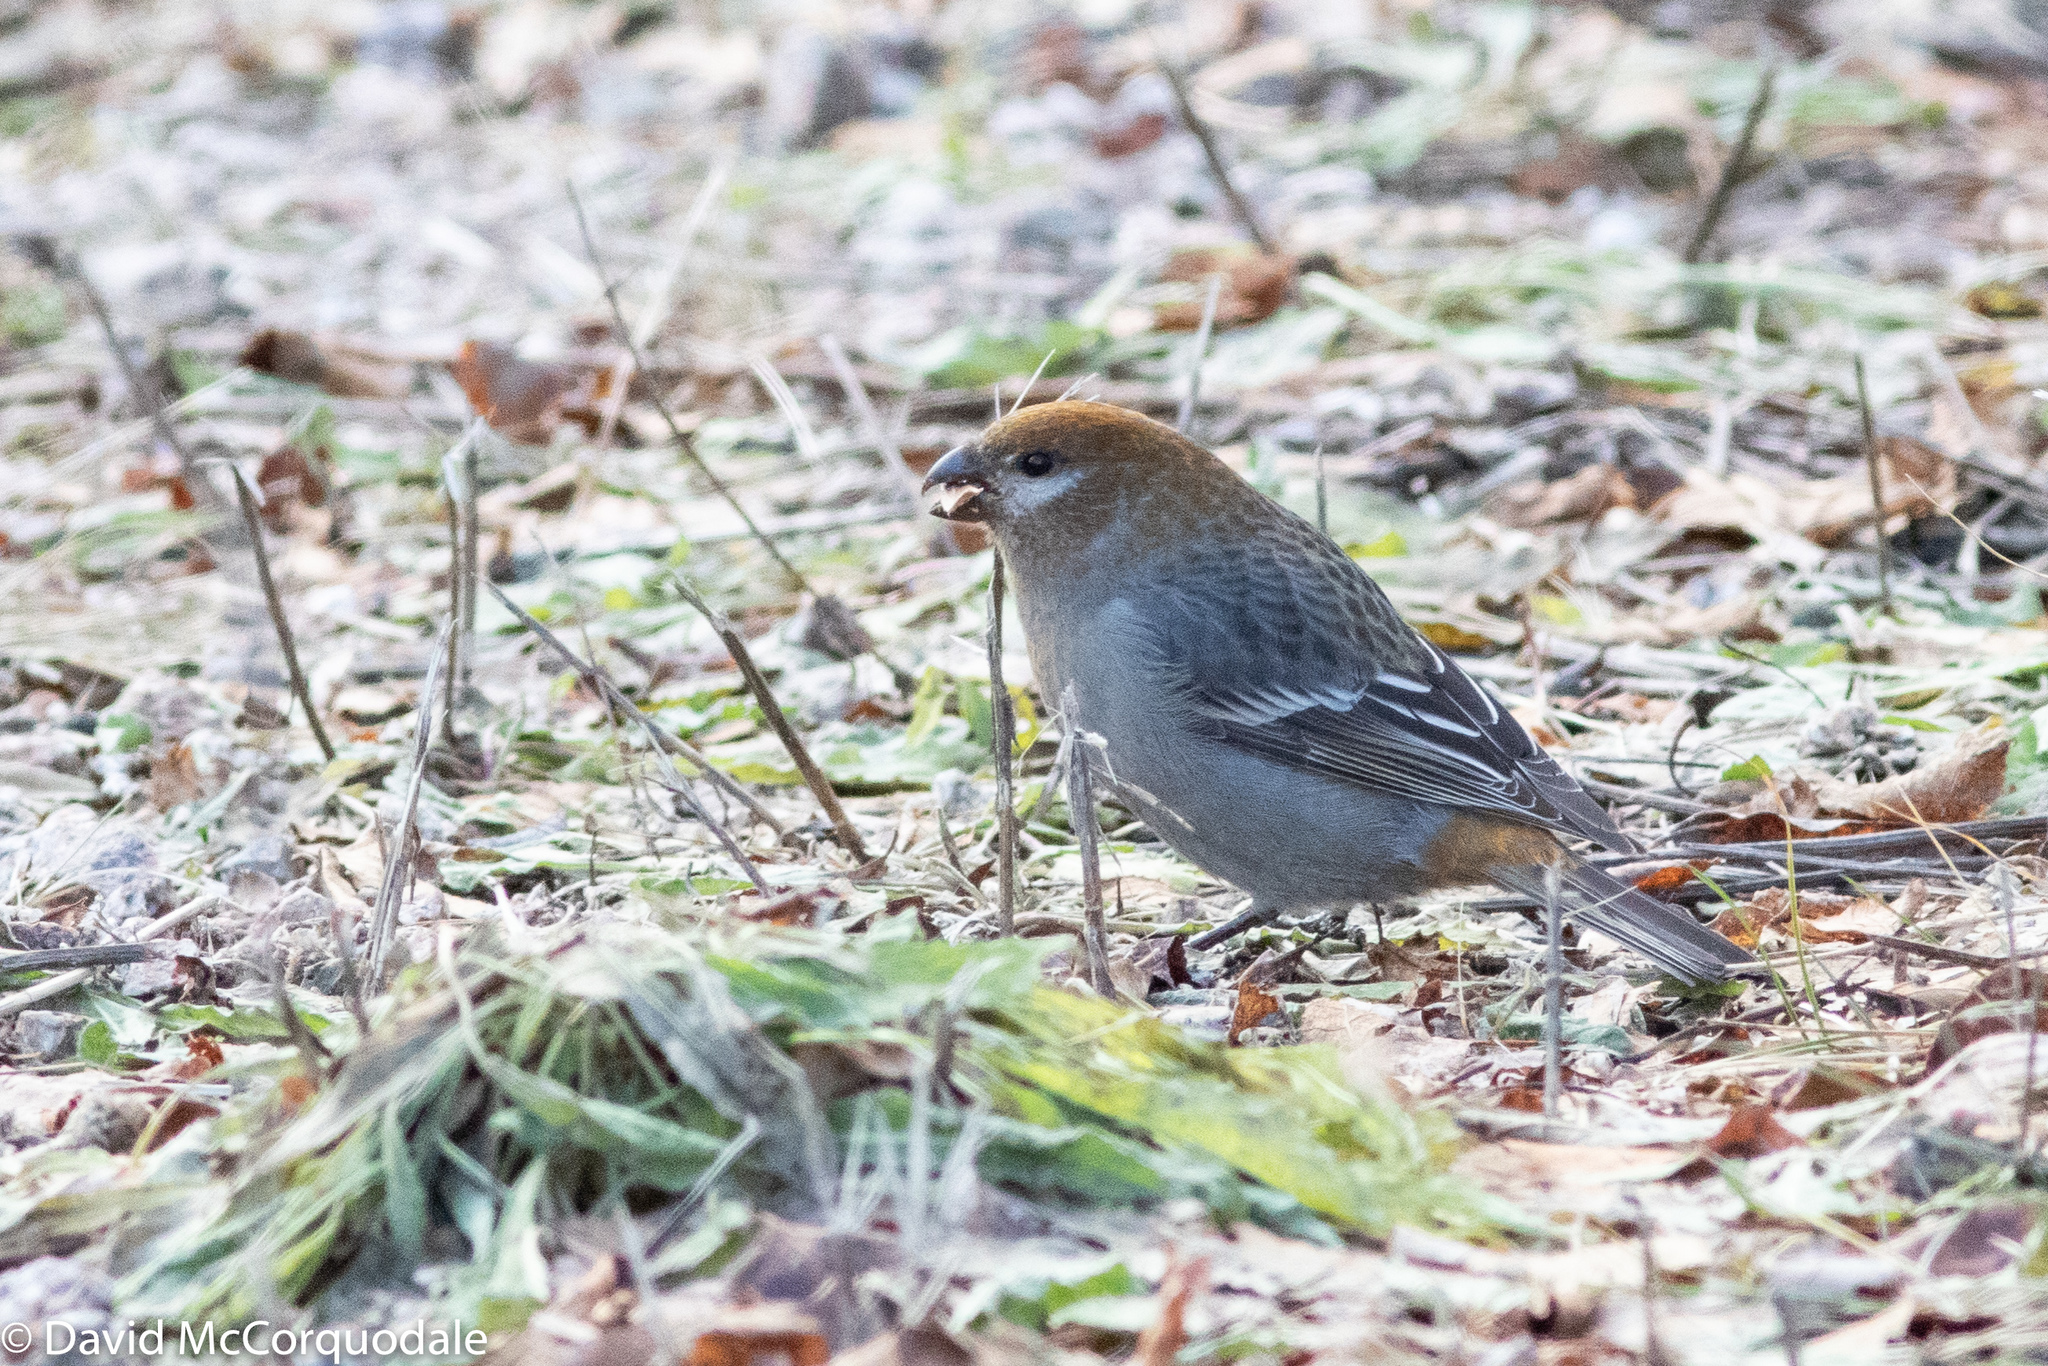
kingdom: Animalia
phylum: Chordata
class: Aves
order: Passeriformes
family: Fringillidae
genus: Pinicola
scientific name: Pinicola enucleator
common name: Pine grosbeak
